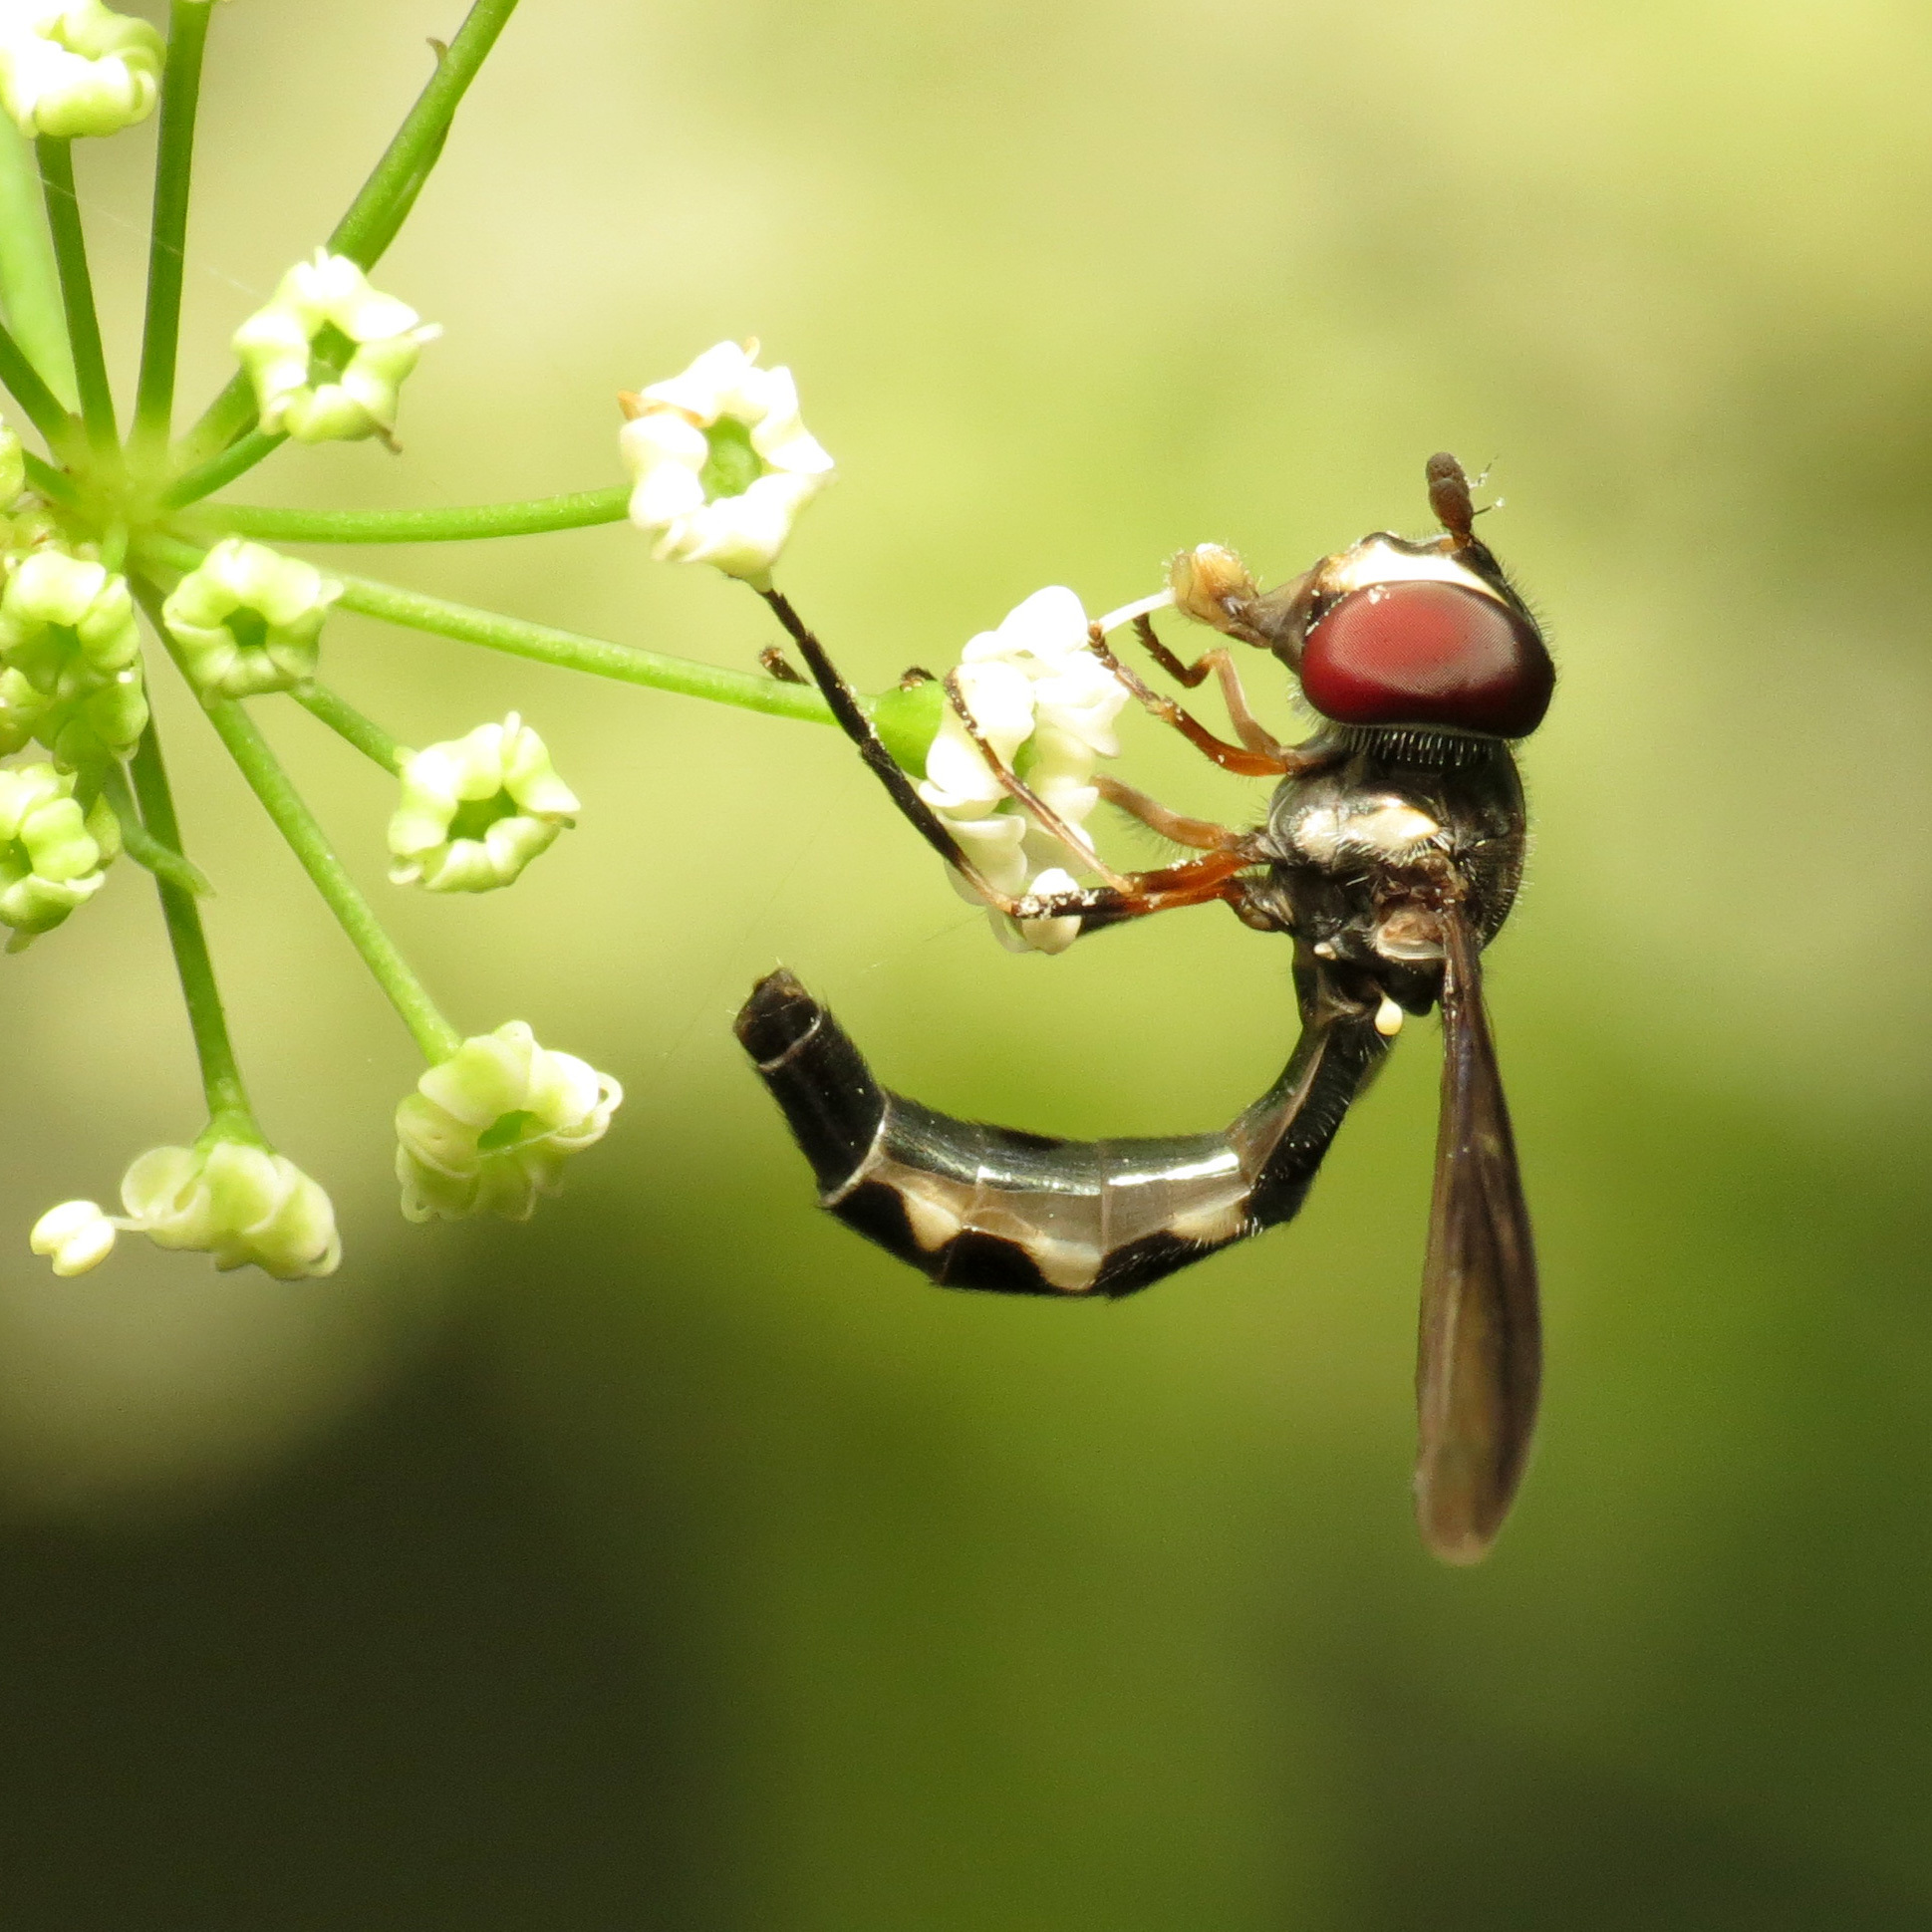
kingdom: Animalia
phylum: Arthropoda
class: Insecta
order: Diptera
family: Syrphidae
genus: Ocyptamus
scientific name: Ocyptamus costatus
